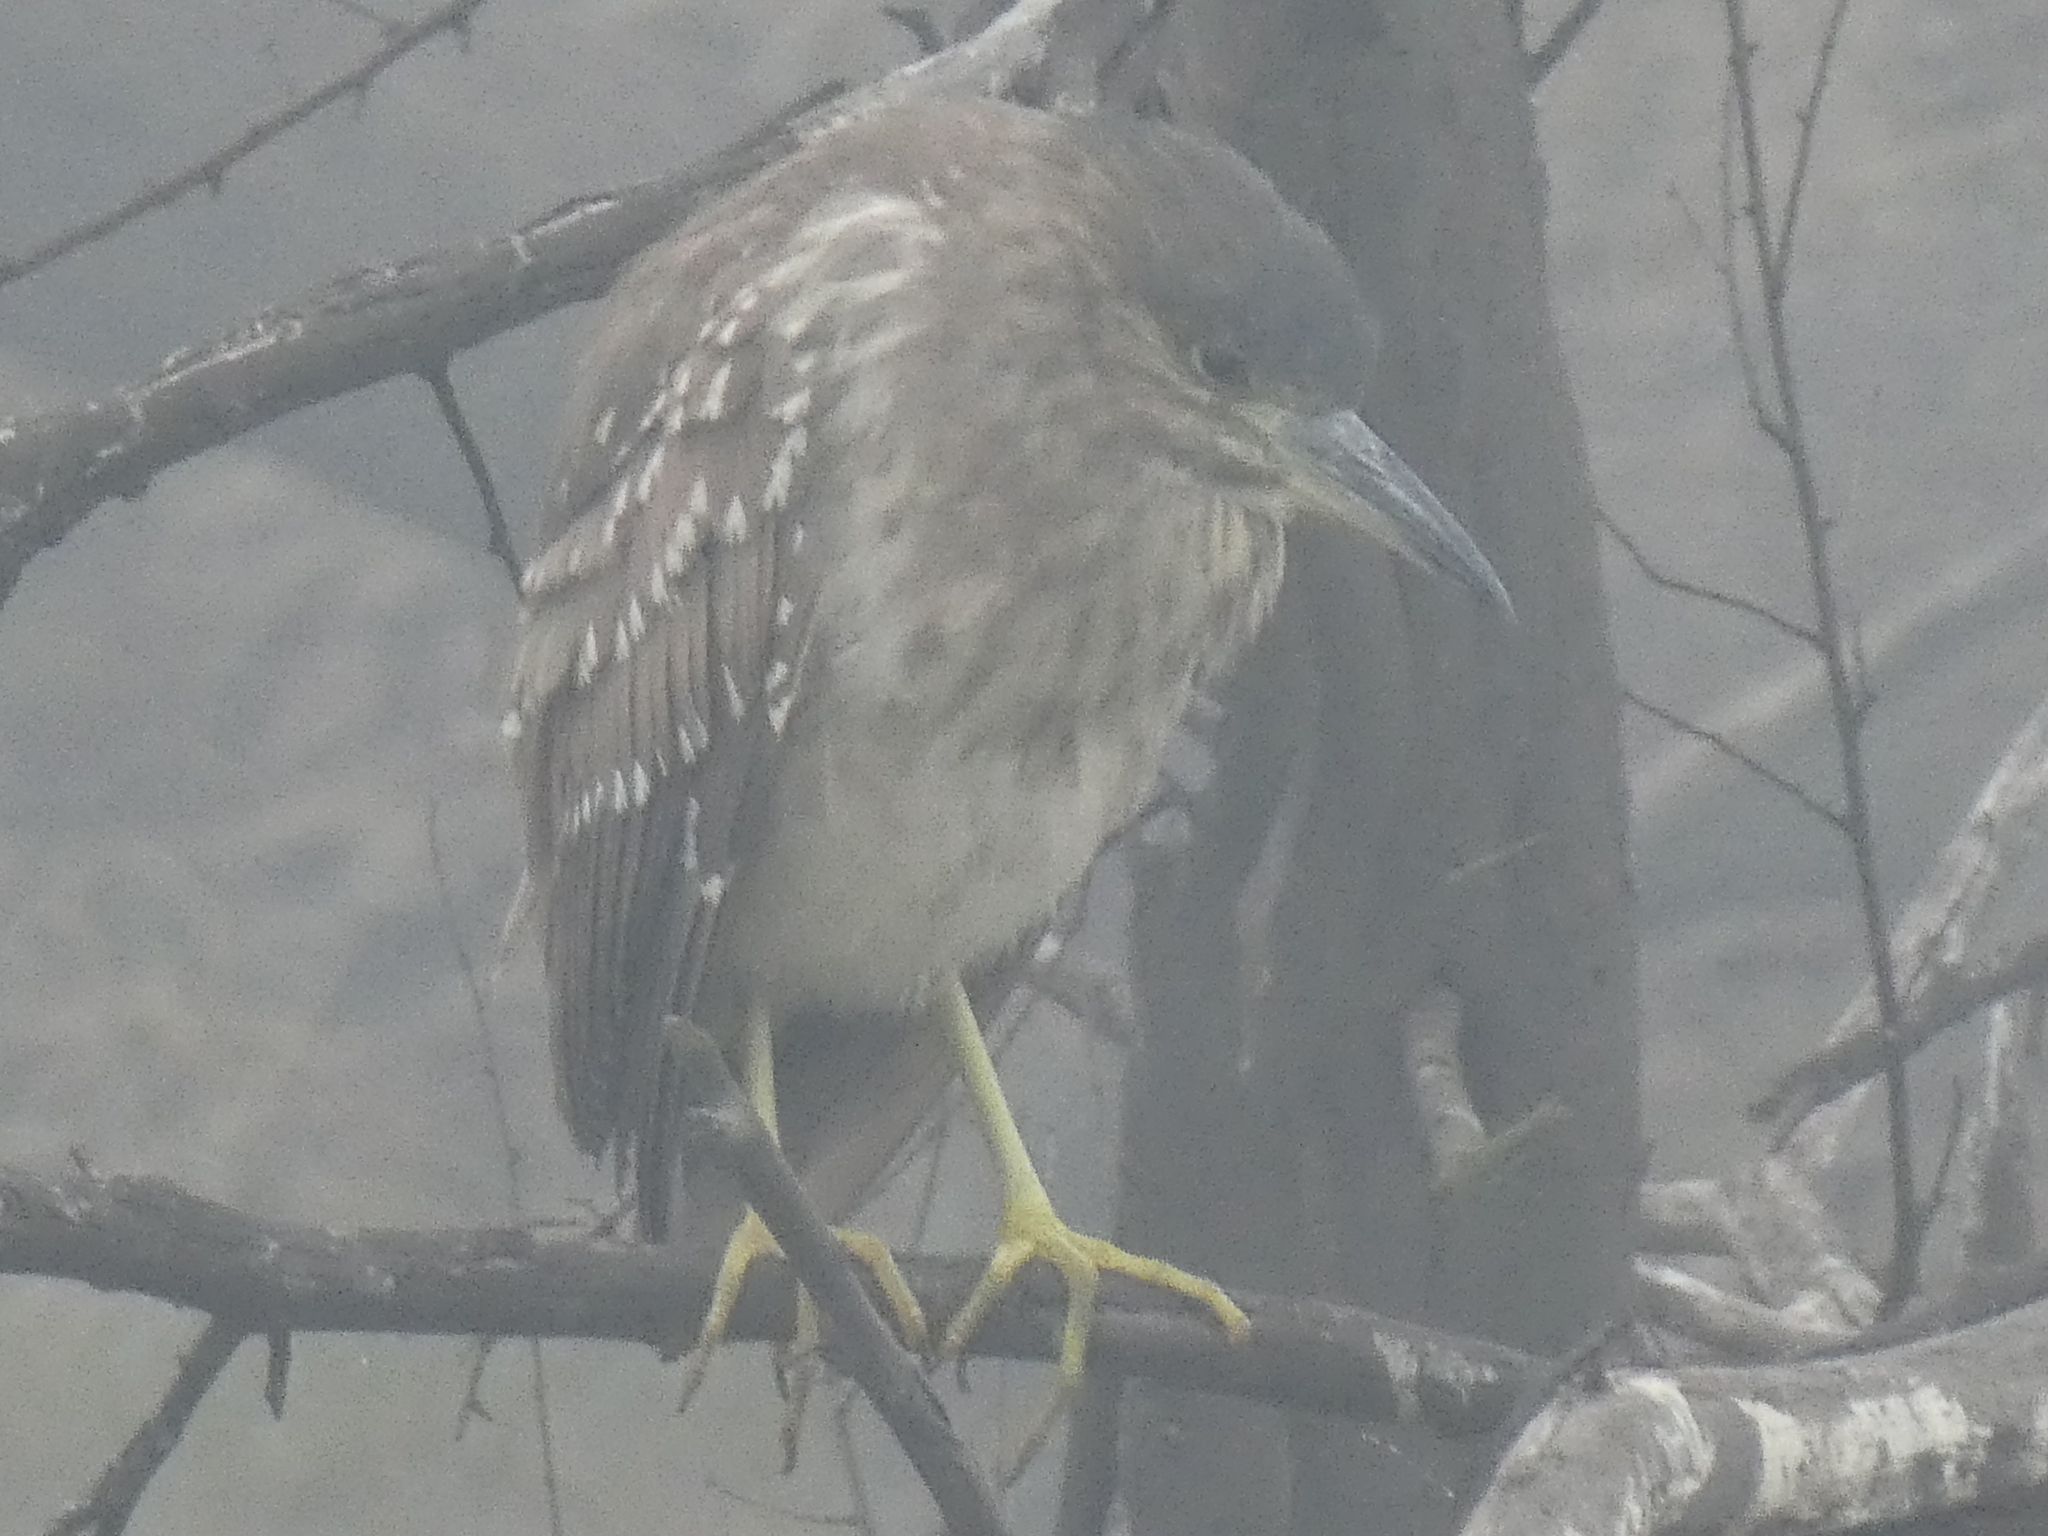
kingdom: Animalia
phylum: Chordata
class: Aves
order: Pelecaniformes
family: Ardeidae
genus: Nycticorax
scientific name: Nycticorax nycticorax
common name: Black-crowned night heron
